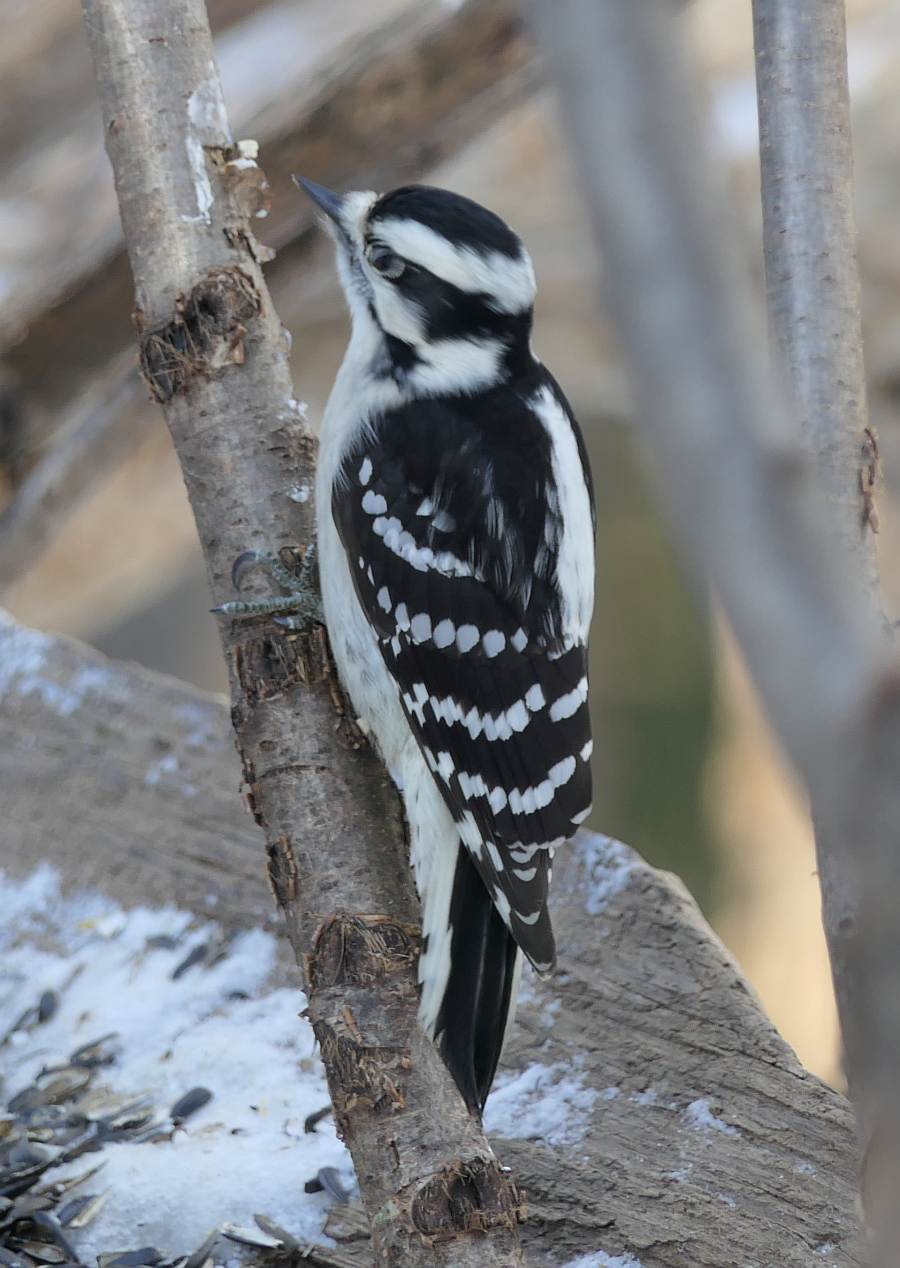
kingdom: Animalia
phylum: Chordata
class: Aves
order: Piciformes
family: Picidae
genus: Dryobates
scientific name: Dryobates pubescens
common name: Downy woodpecker
